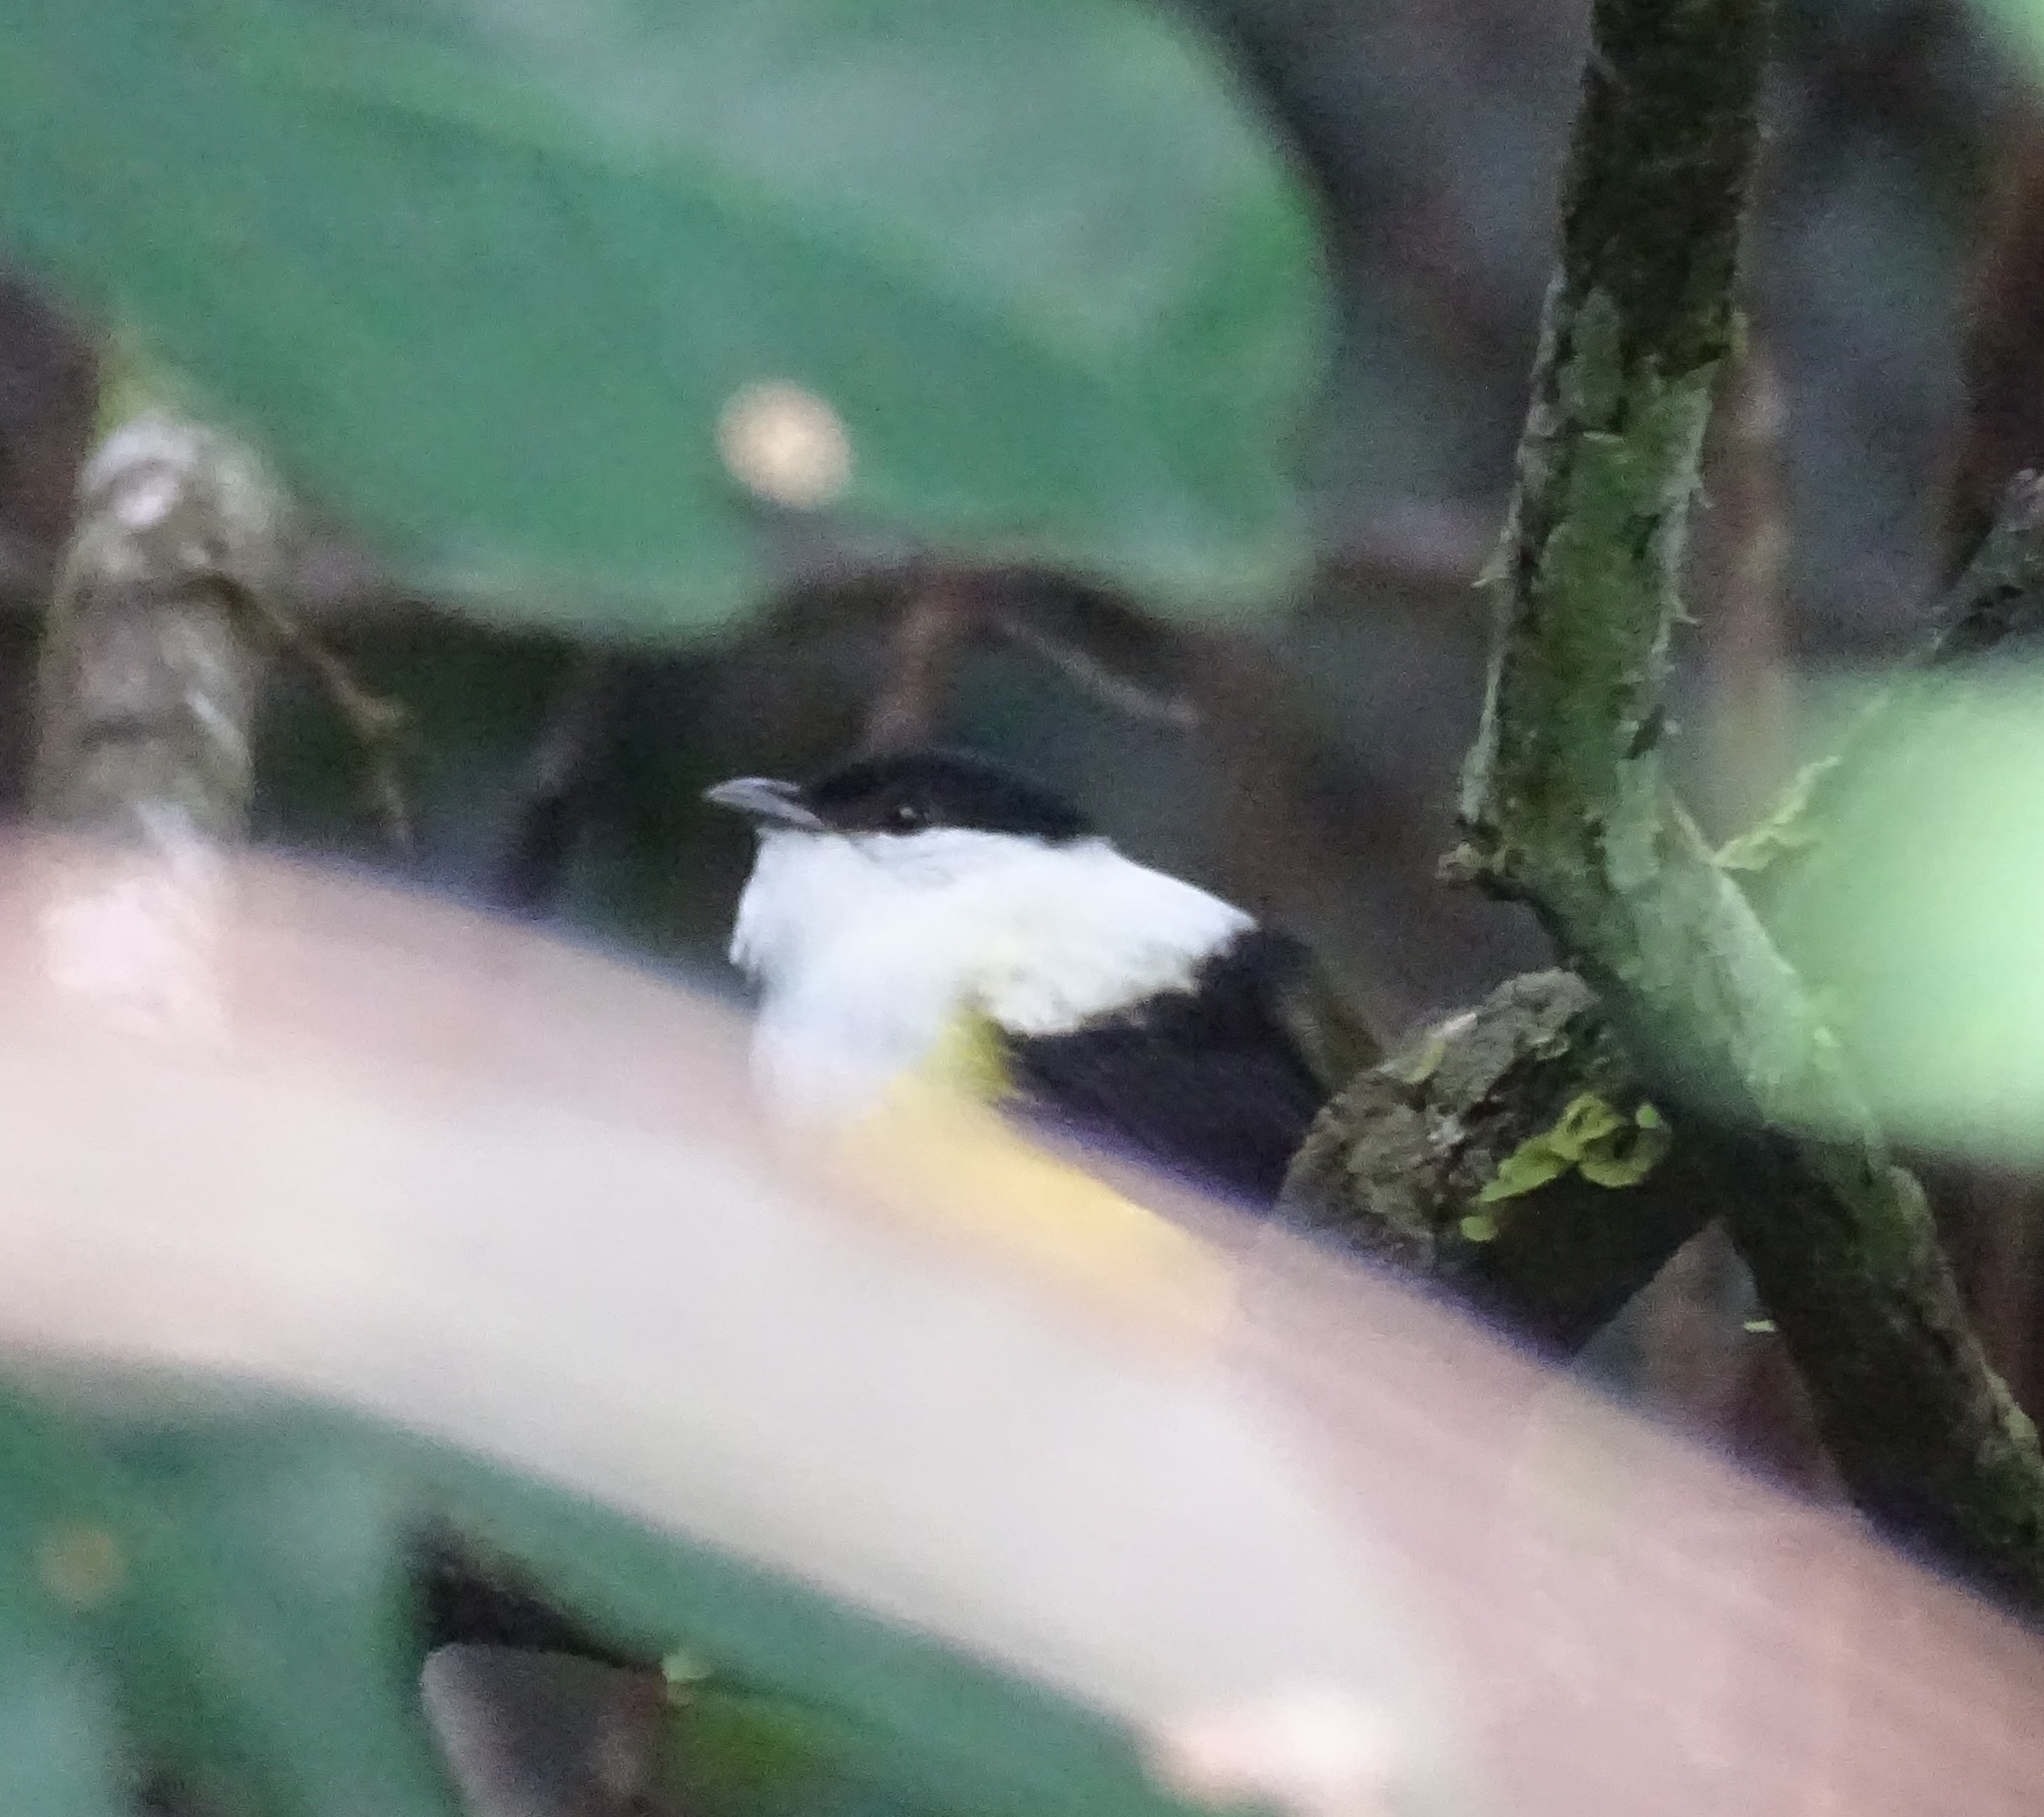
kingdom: Animalia
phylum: Chordata
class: Aves
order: Passeriformes
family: Pipridae
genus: Manacus
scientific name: Manacus candei
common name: White-collared manakin
